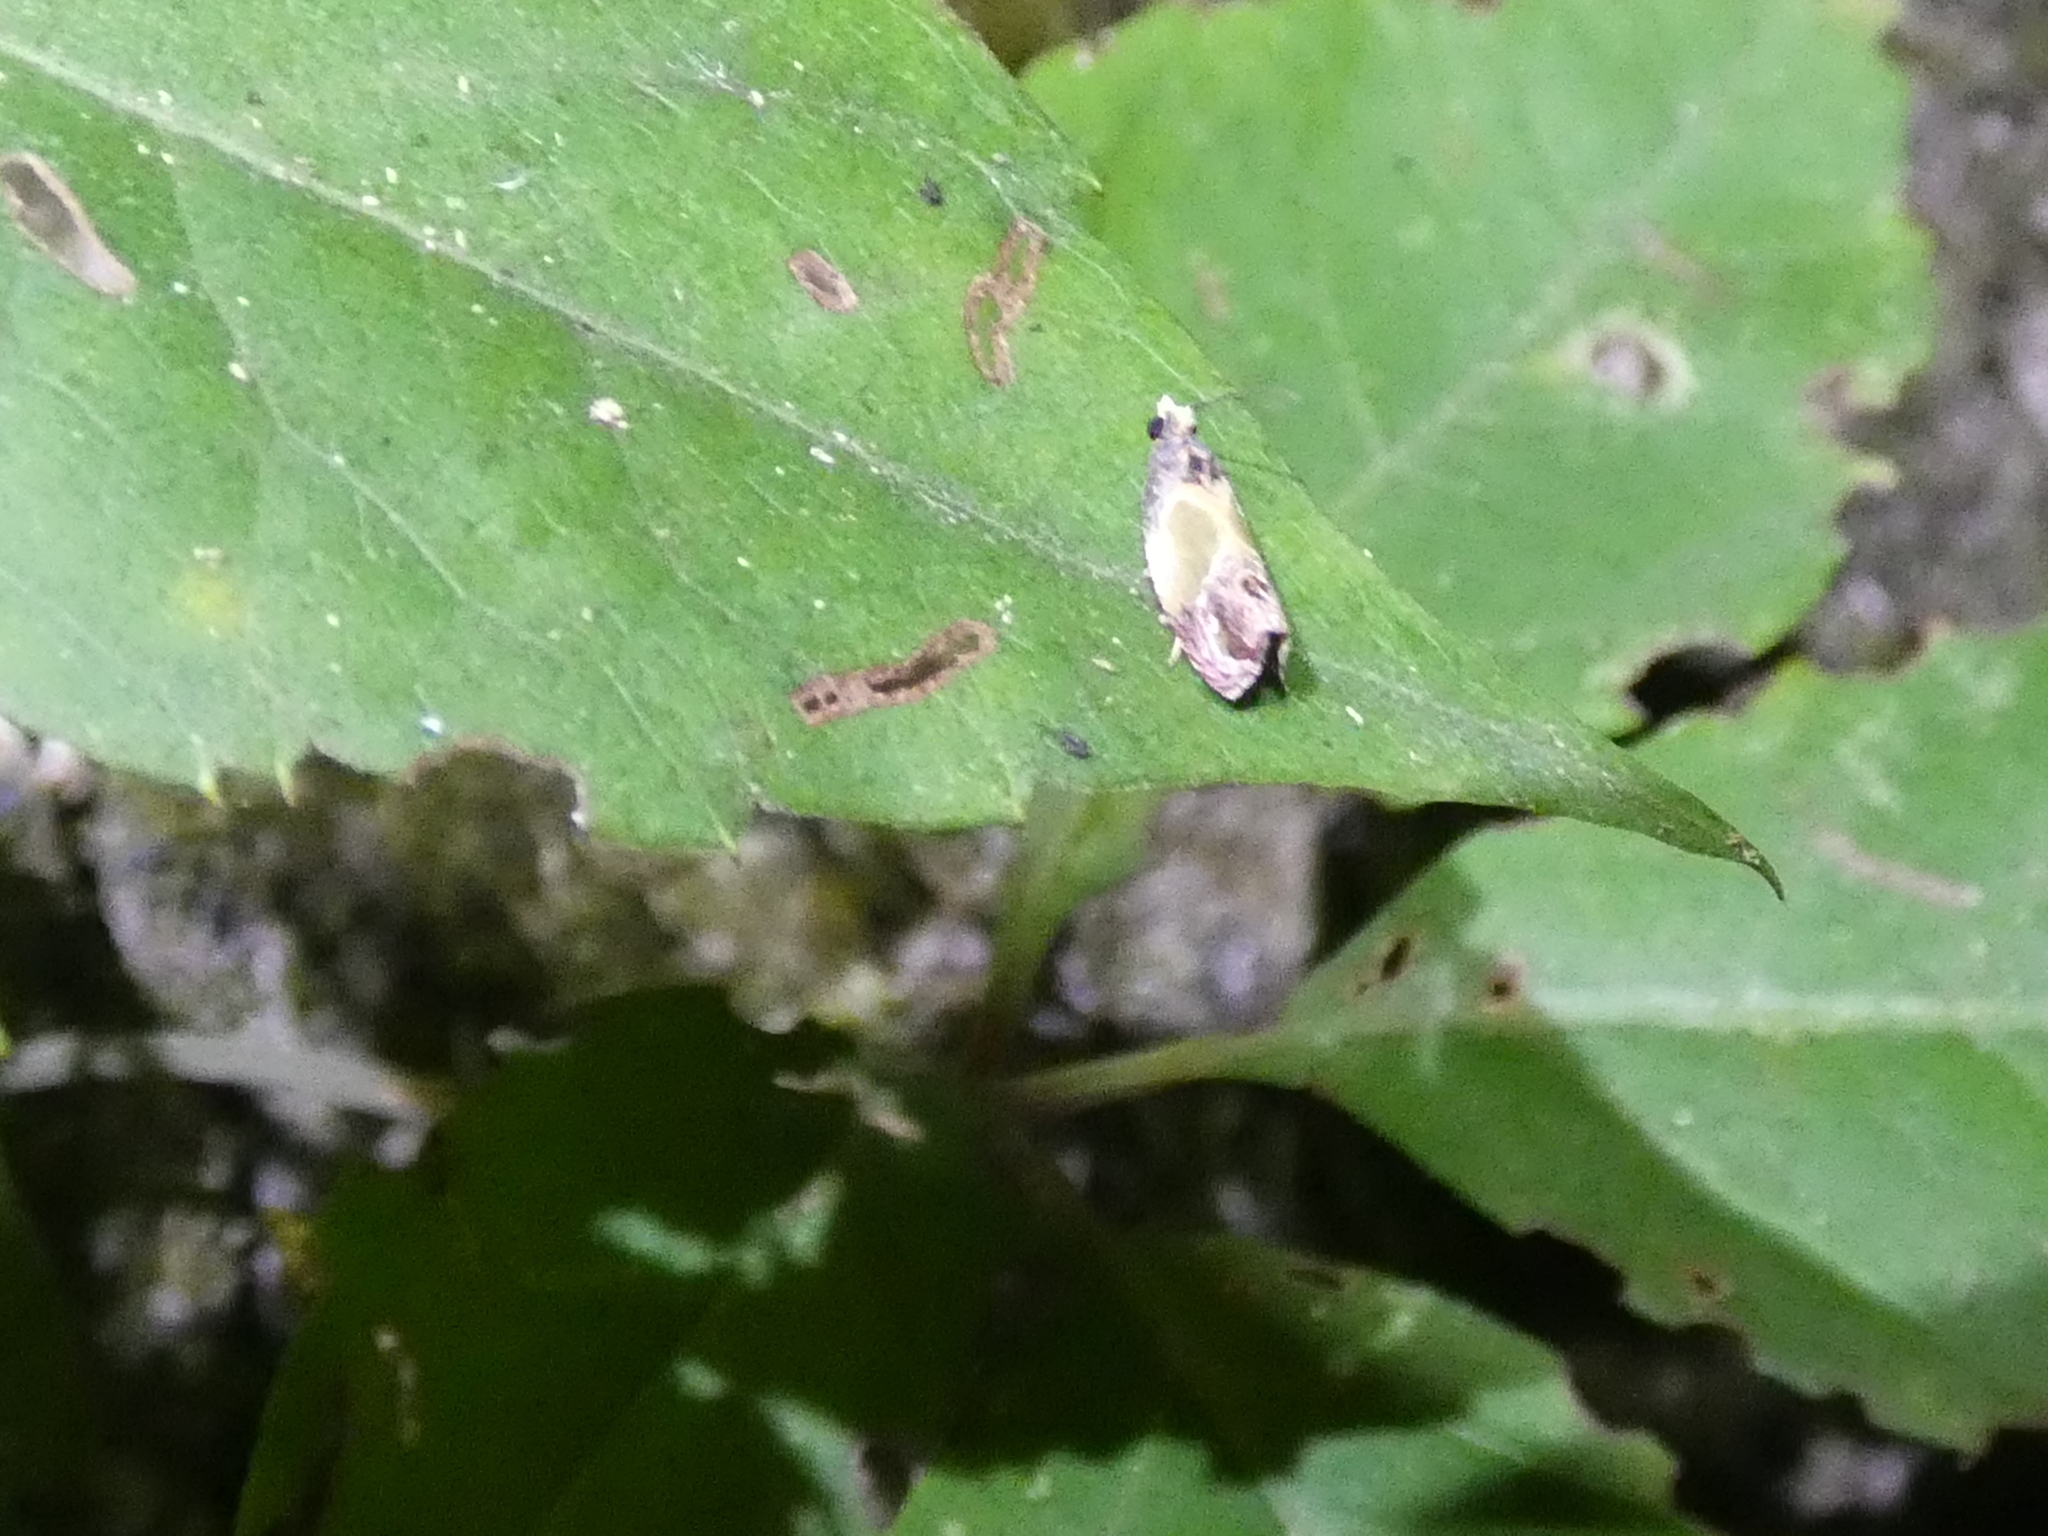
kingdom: Animalia
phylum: Arthropoda
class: Insecta
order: Lepidoptera
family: Tortricidae
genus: Eumarozia
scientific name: Eumarozia malachitana
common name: Sculptured moth
